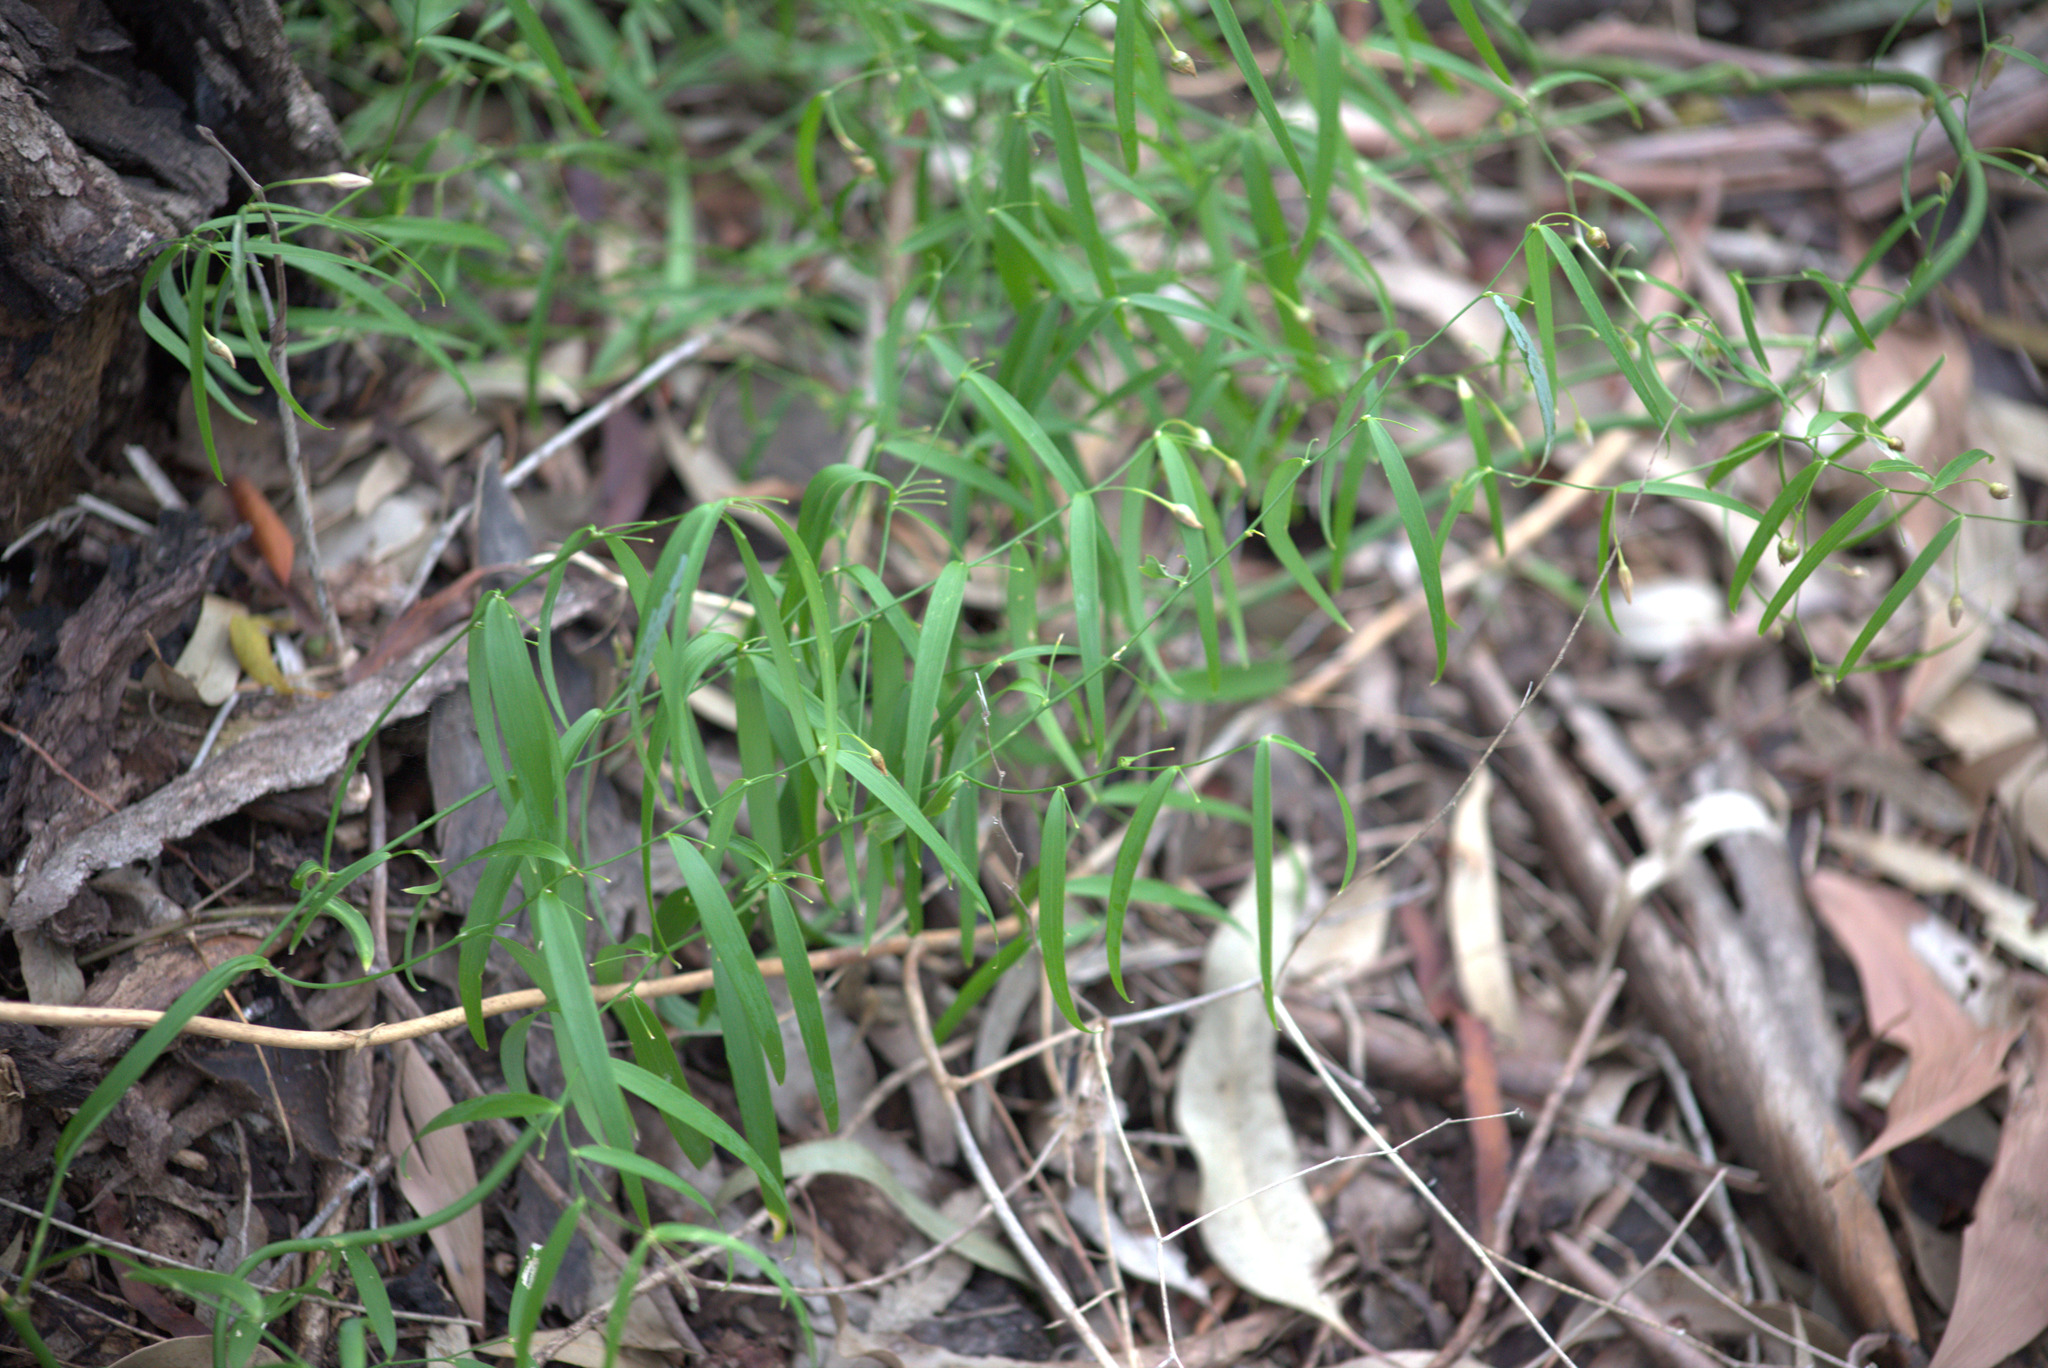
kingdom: Plantae
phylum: Tracheophyta
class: Liliopsida
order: Asparagales
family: Asparagaceae
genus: Eustrephus
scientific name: Eustrephus latifolius
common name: Orangevine
